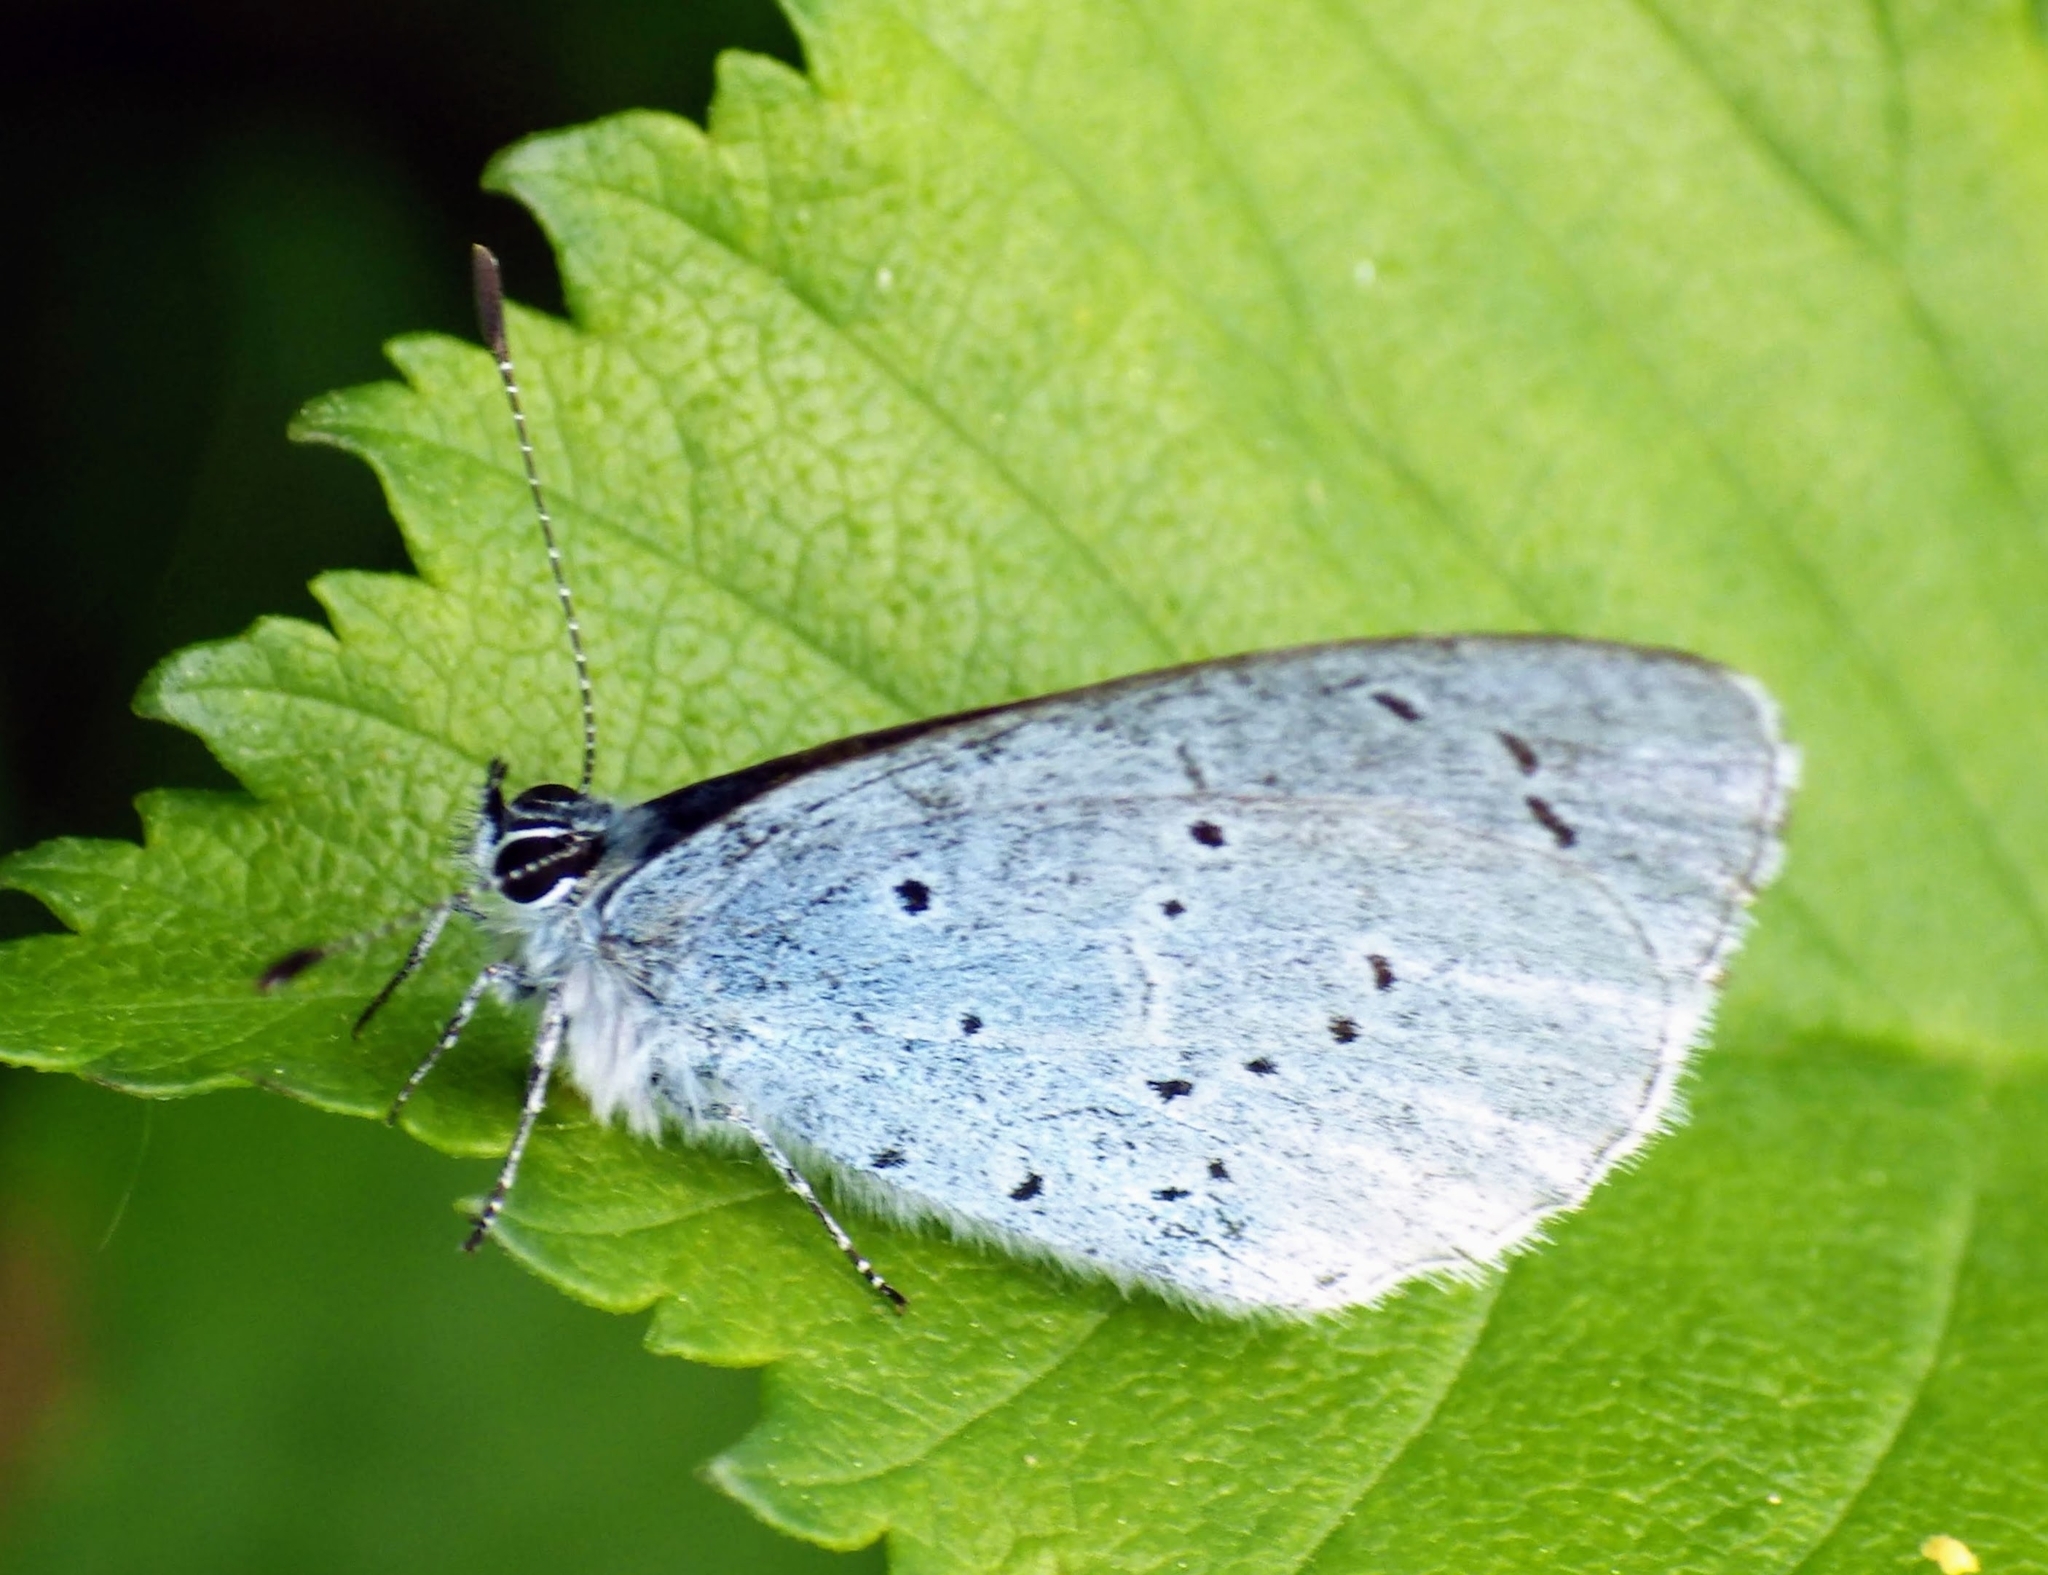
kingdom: Animalia
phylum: Arthropoda
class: Insecta
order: Lepidoptera
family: Lycaenidae
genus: Celastrina
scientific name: Celastrina argiolus
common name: Holly blue
